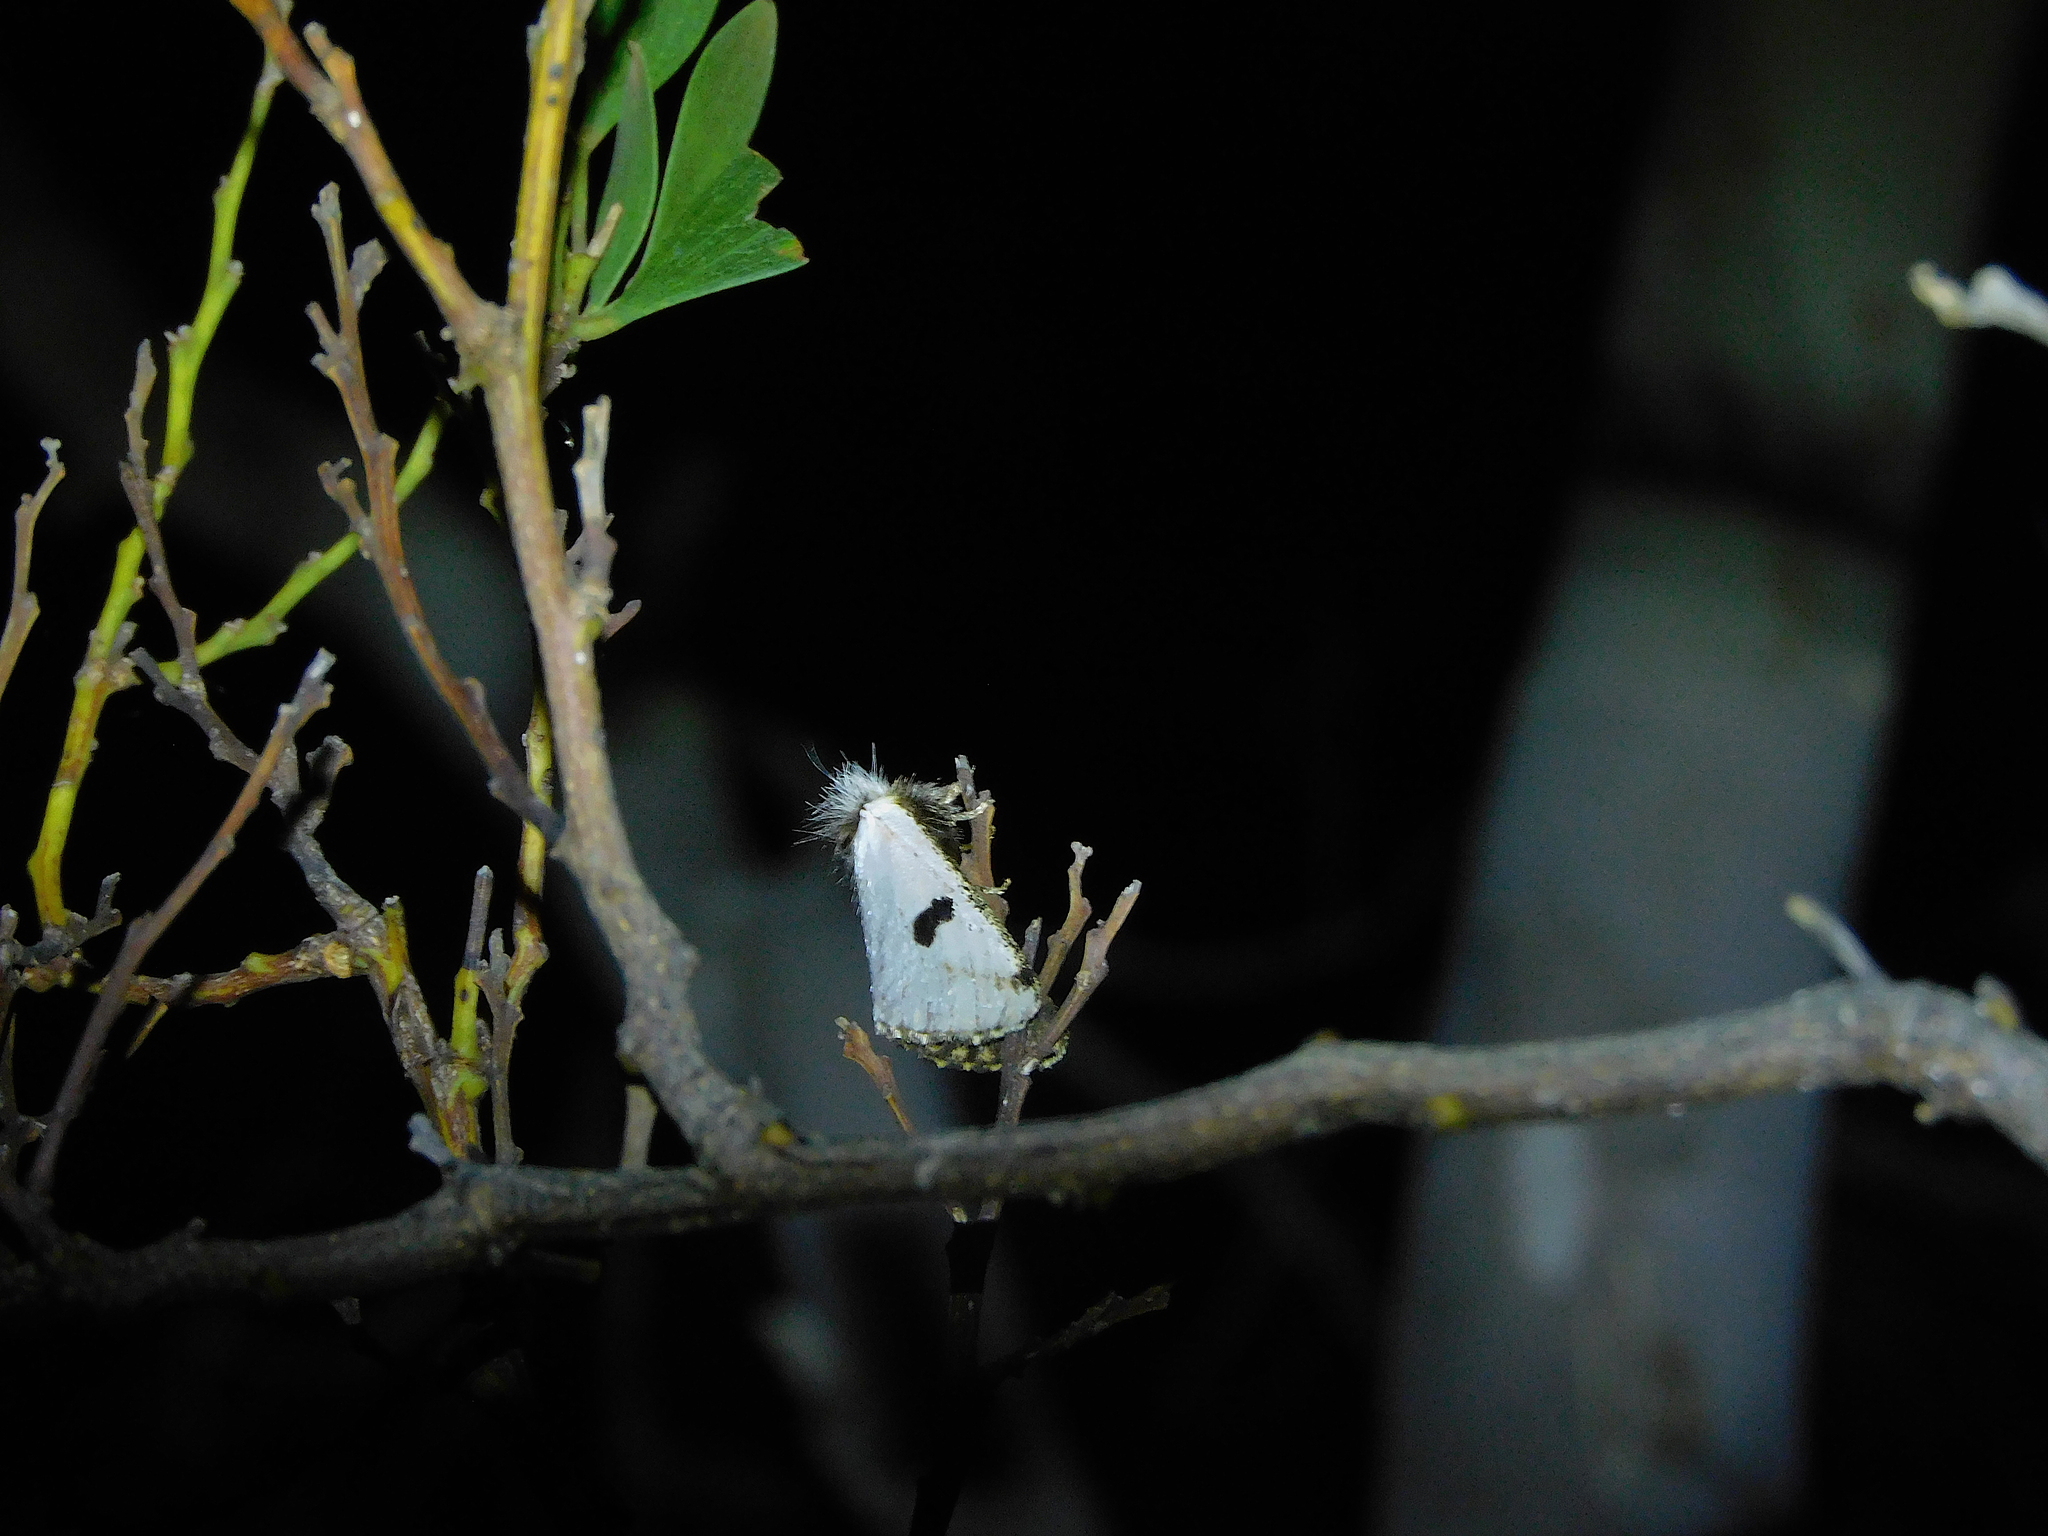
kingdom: Animalia
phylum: Arthropoda
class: Insecta
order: Lepidoptera
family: Notodontidae
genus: Epicoma
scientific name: Epicoma melanospila
